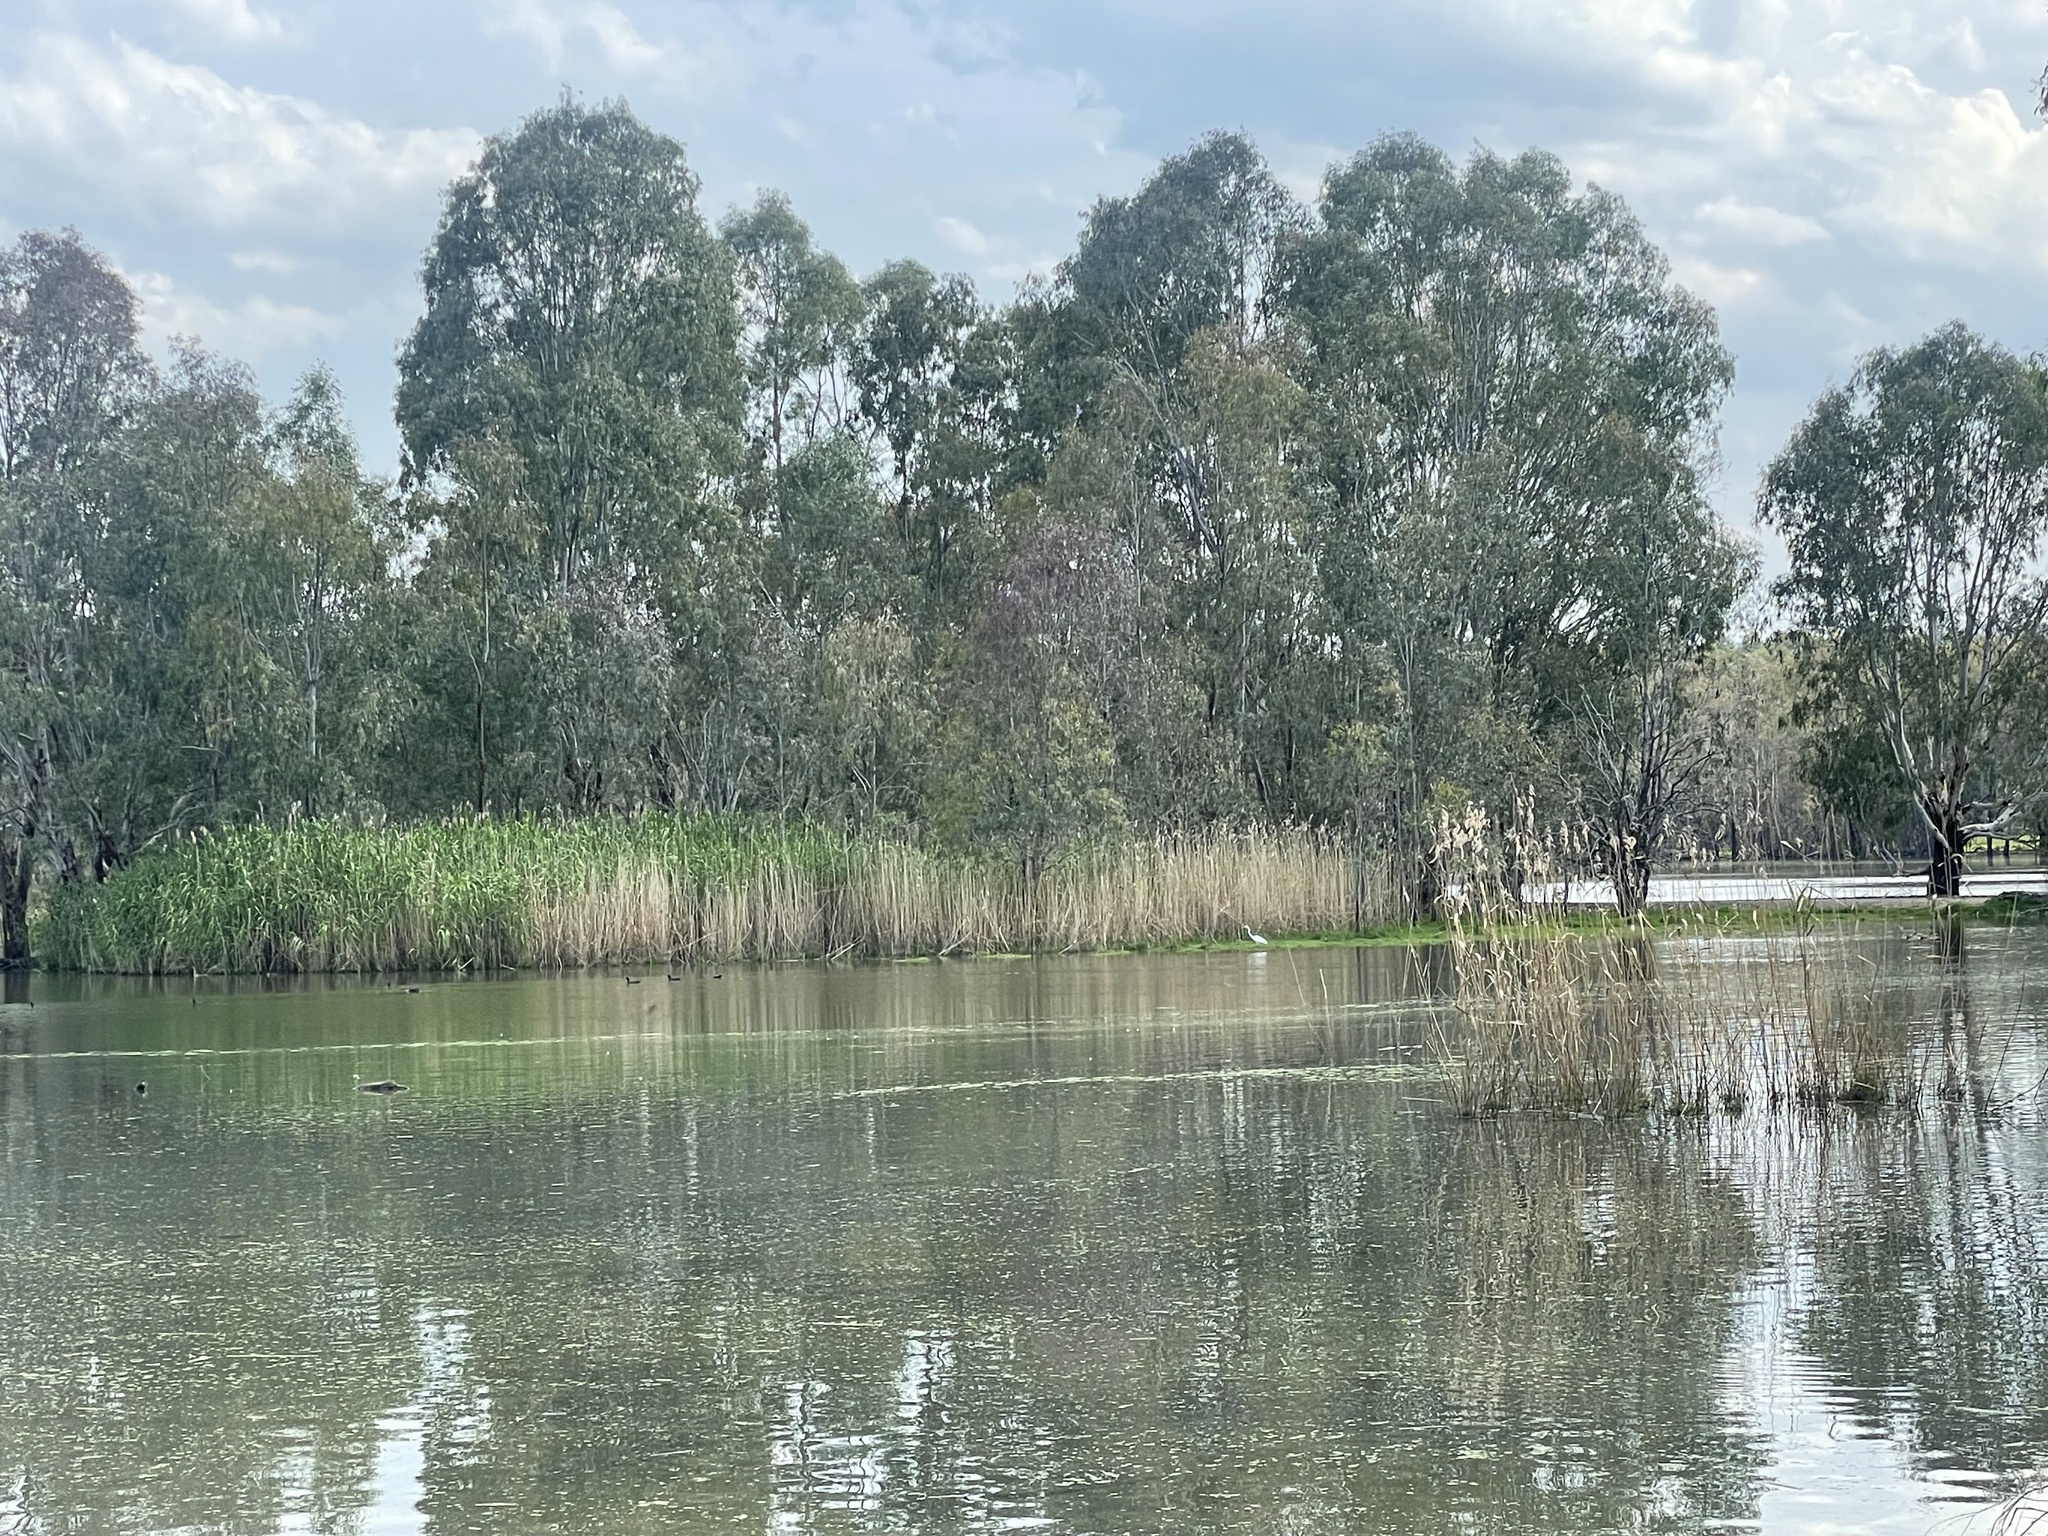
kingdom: Plantae
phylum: Tracheophyta
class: Liliopsida
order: Poales
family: Poaceae
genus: Phragmites
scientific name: Phragmites australis
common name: Common reed
